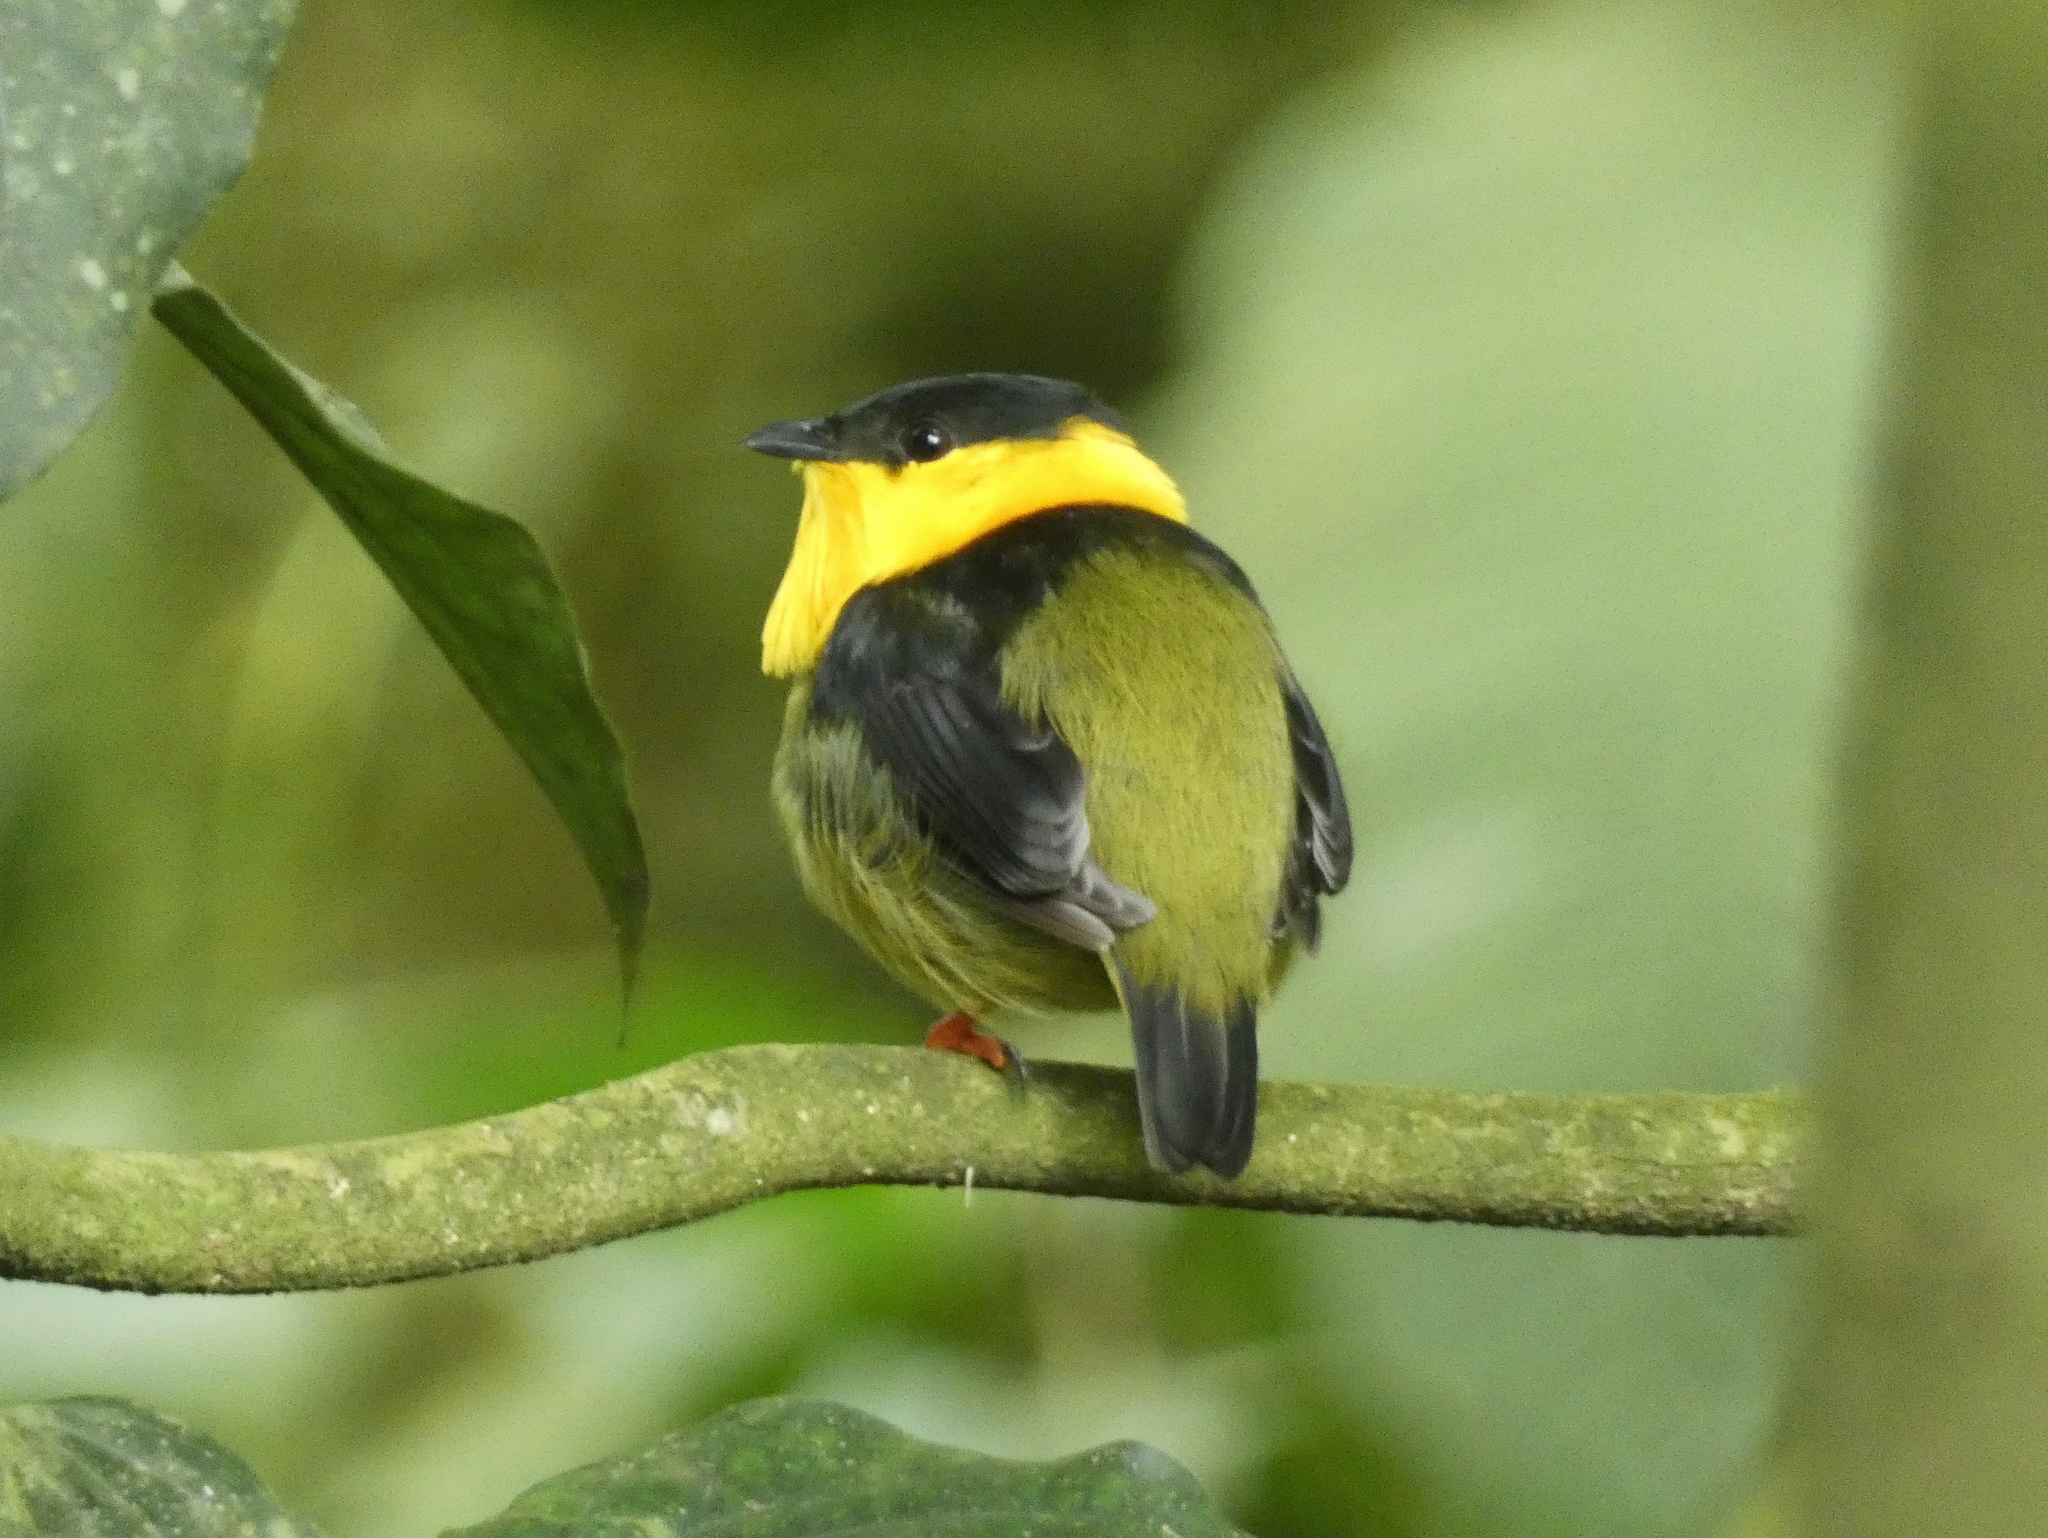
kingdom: Animalia
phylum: Chordata
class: Aves
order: Passeriformes
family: Pipridae
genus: Manacus
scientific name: Manacus vitellinus
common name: Golden-collared manakin
